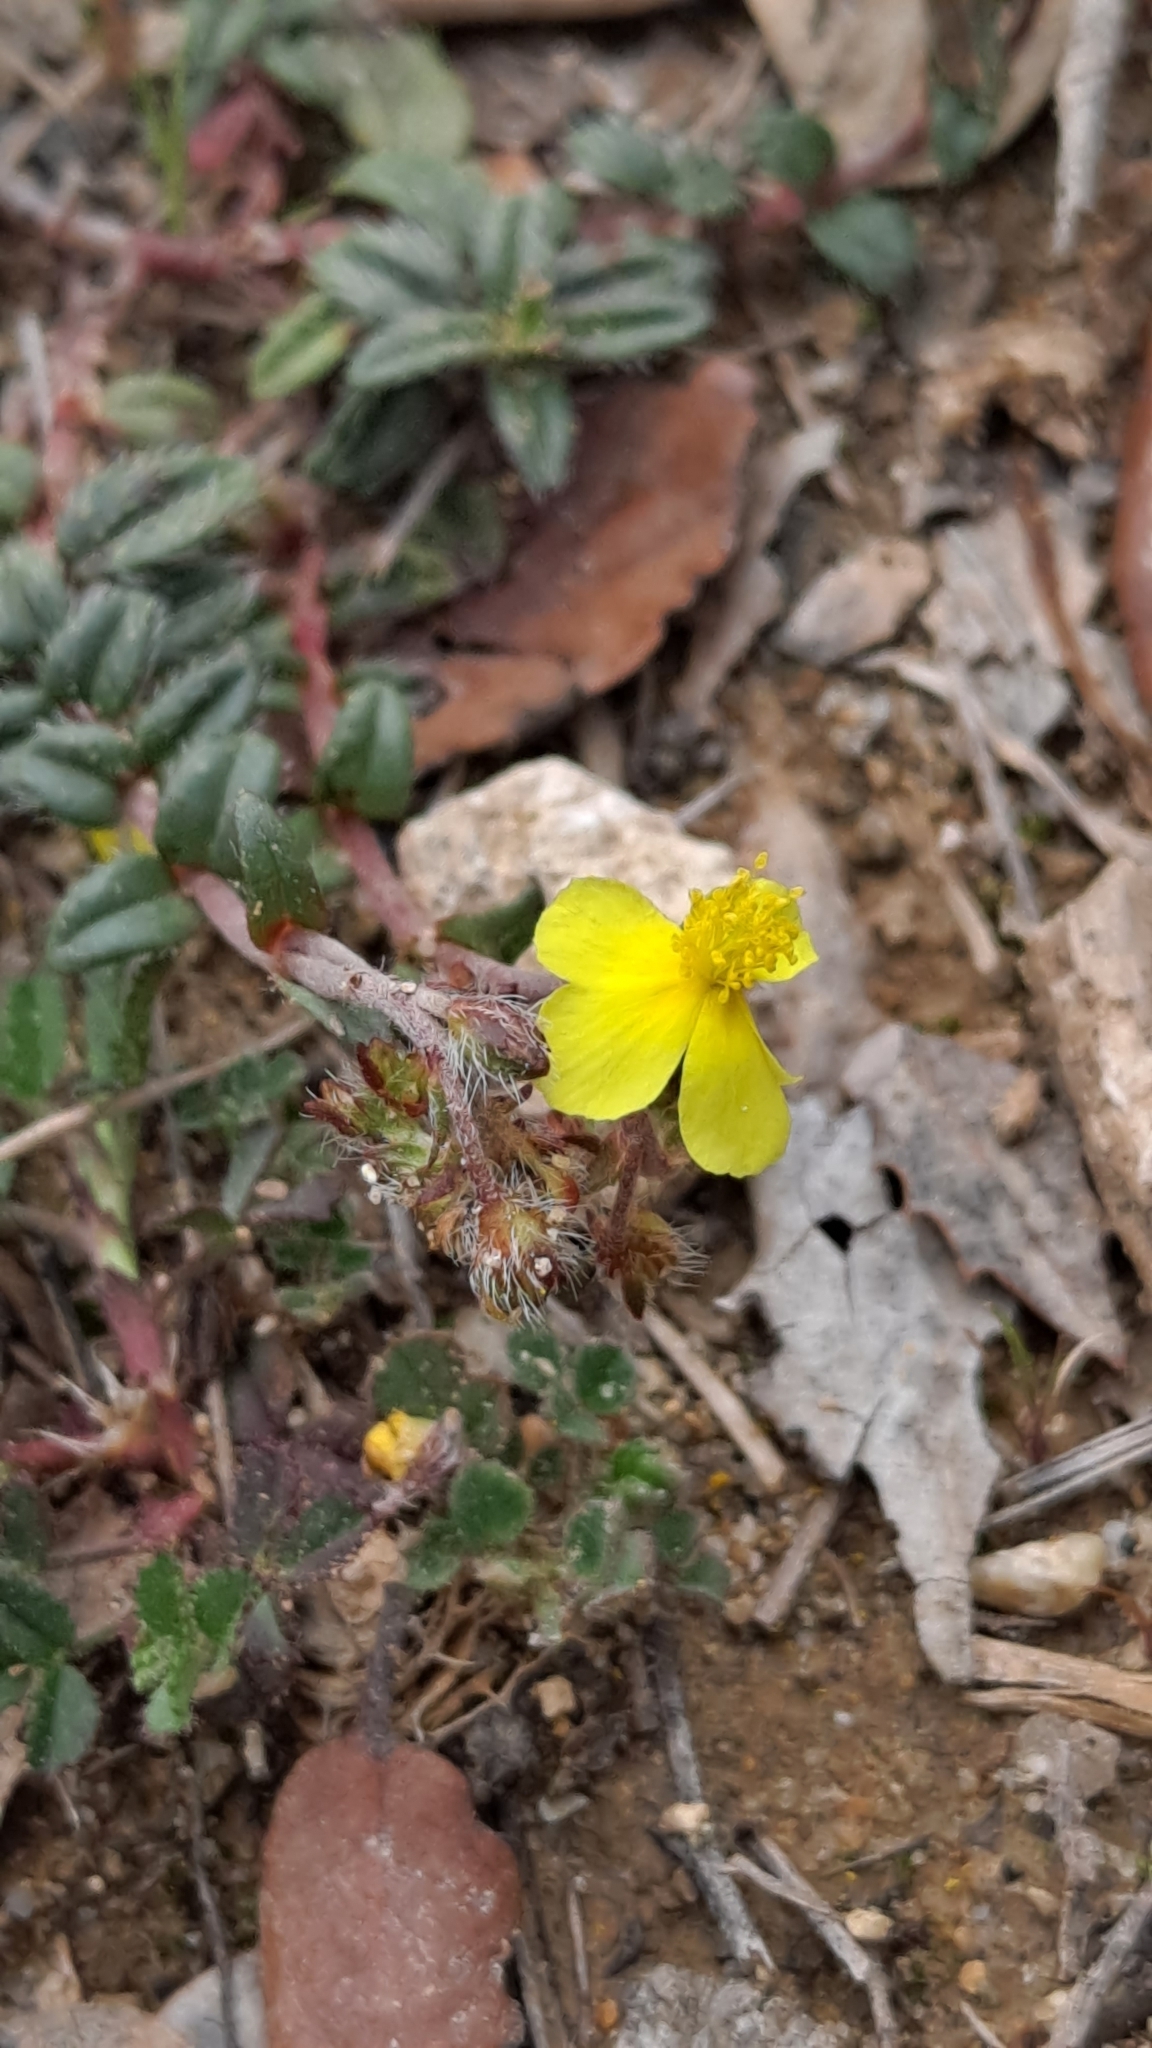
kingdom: Plantae
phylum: Tracheophyta
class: Magnoliopsida
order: Malvales
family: Cistaceae
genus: Helianthemum
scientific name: Helianthemum oelandicum
